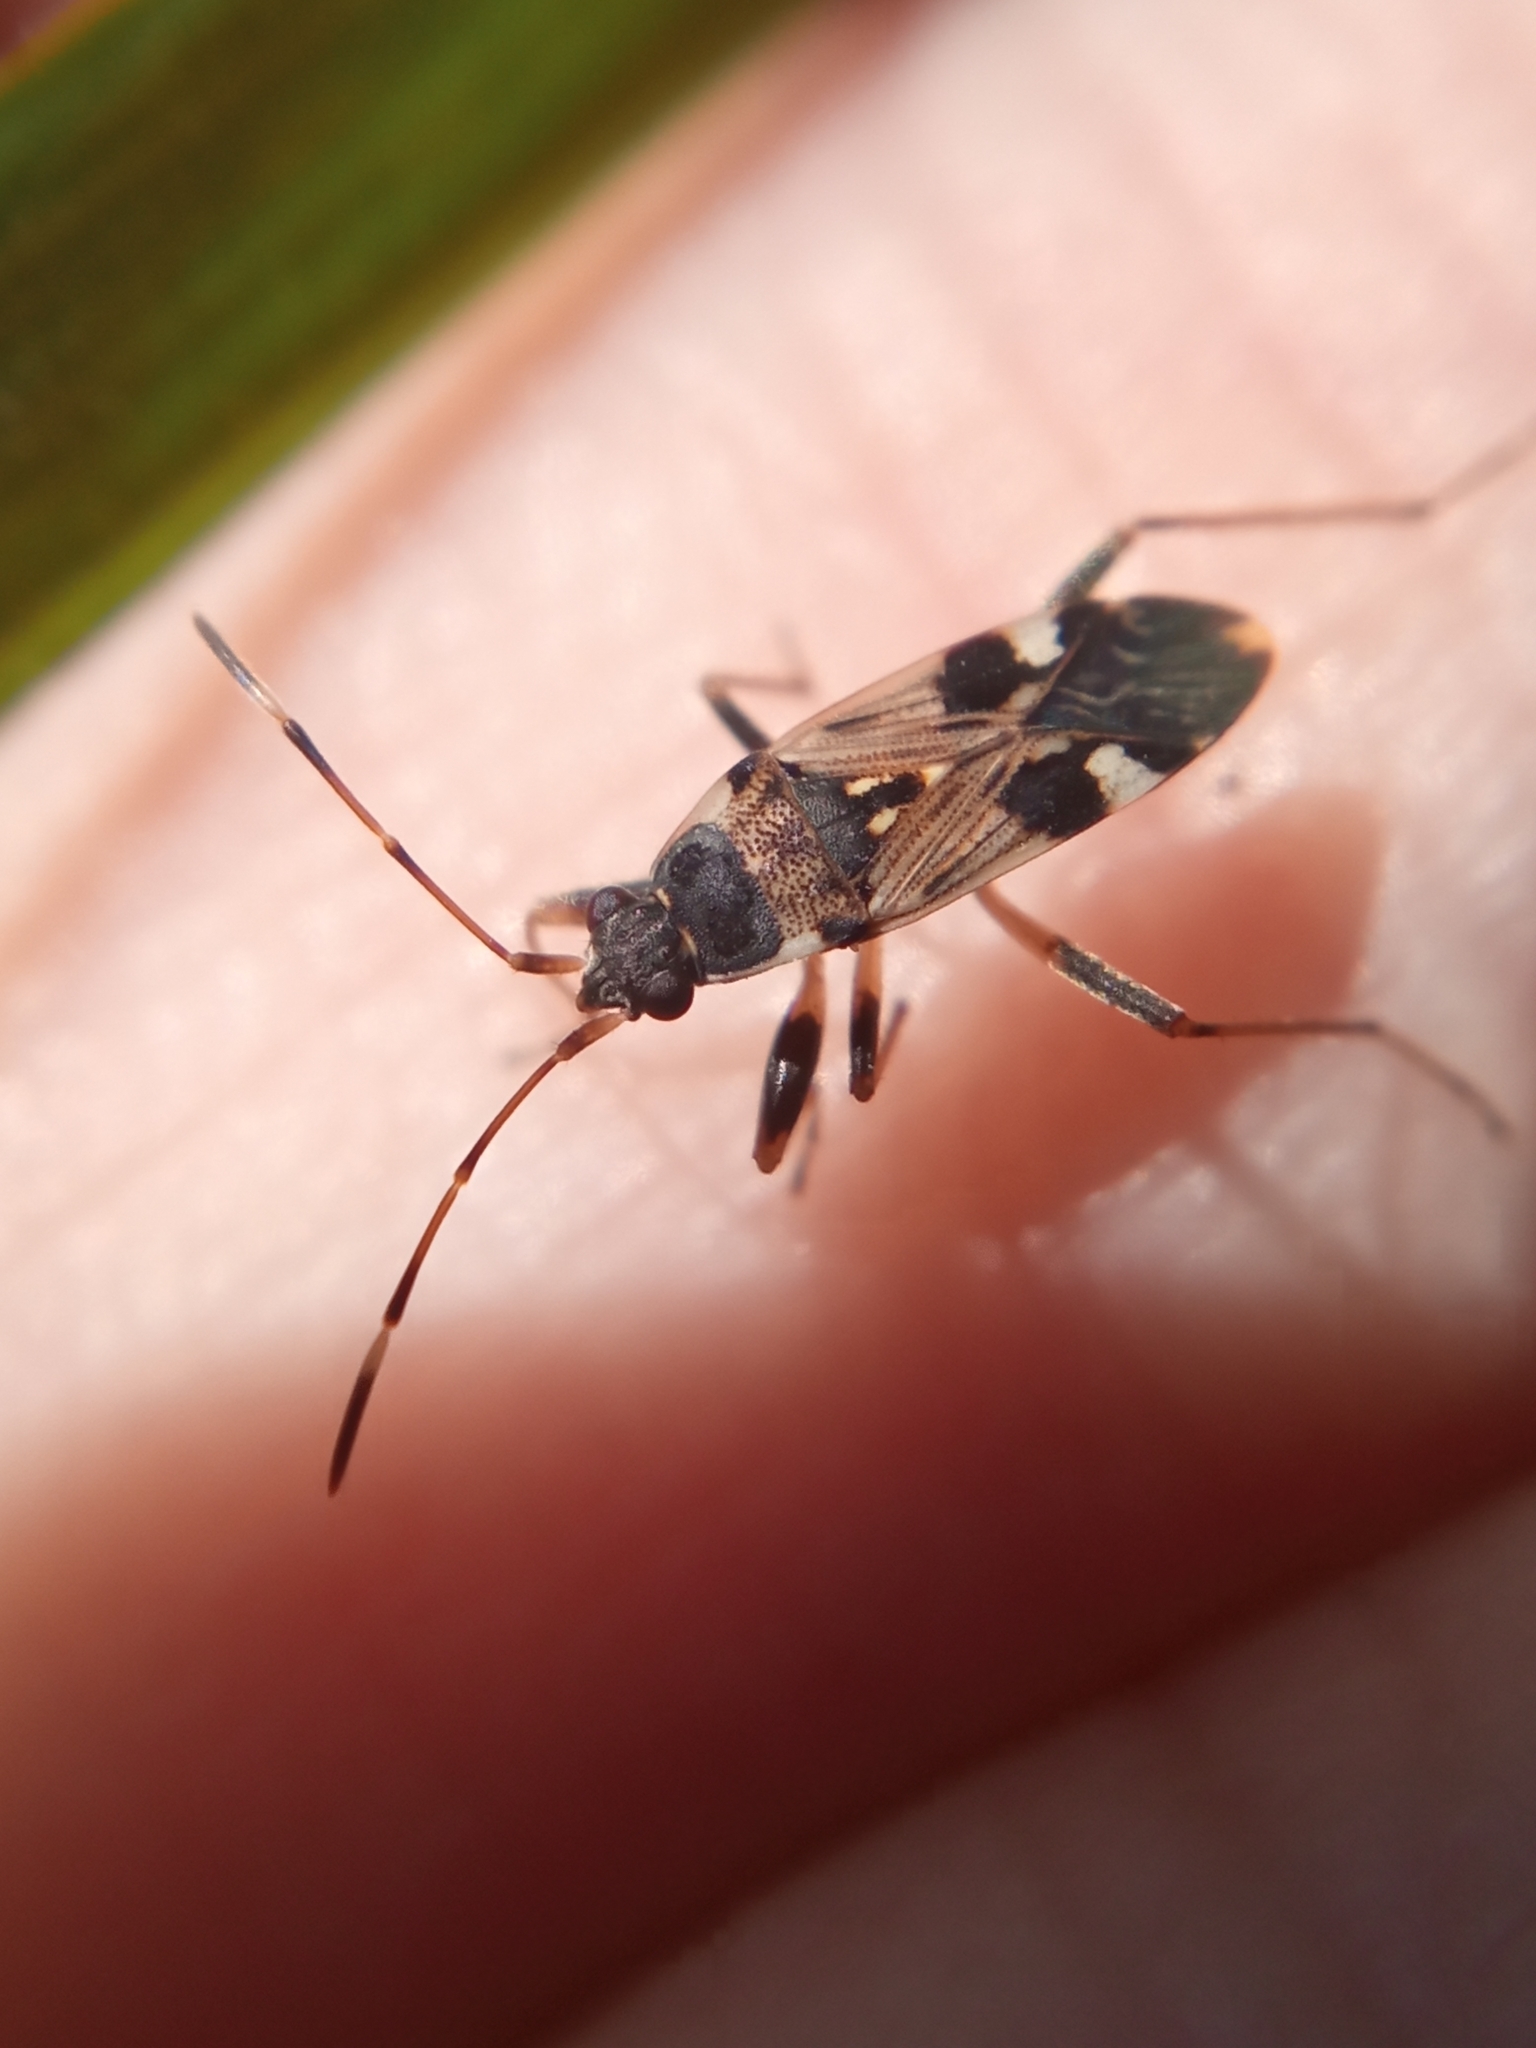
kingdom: Animalia
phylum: Arthropoda
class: Insecta
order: Hemiptera
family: Rhyparochromidae
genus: Beosus
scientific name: Beosus maritimus
